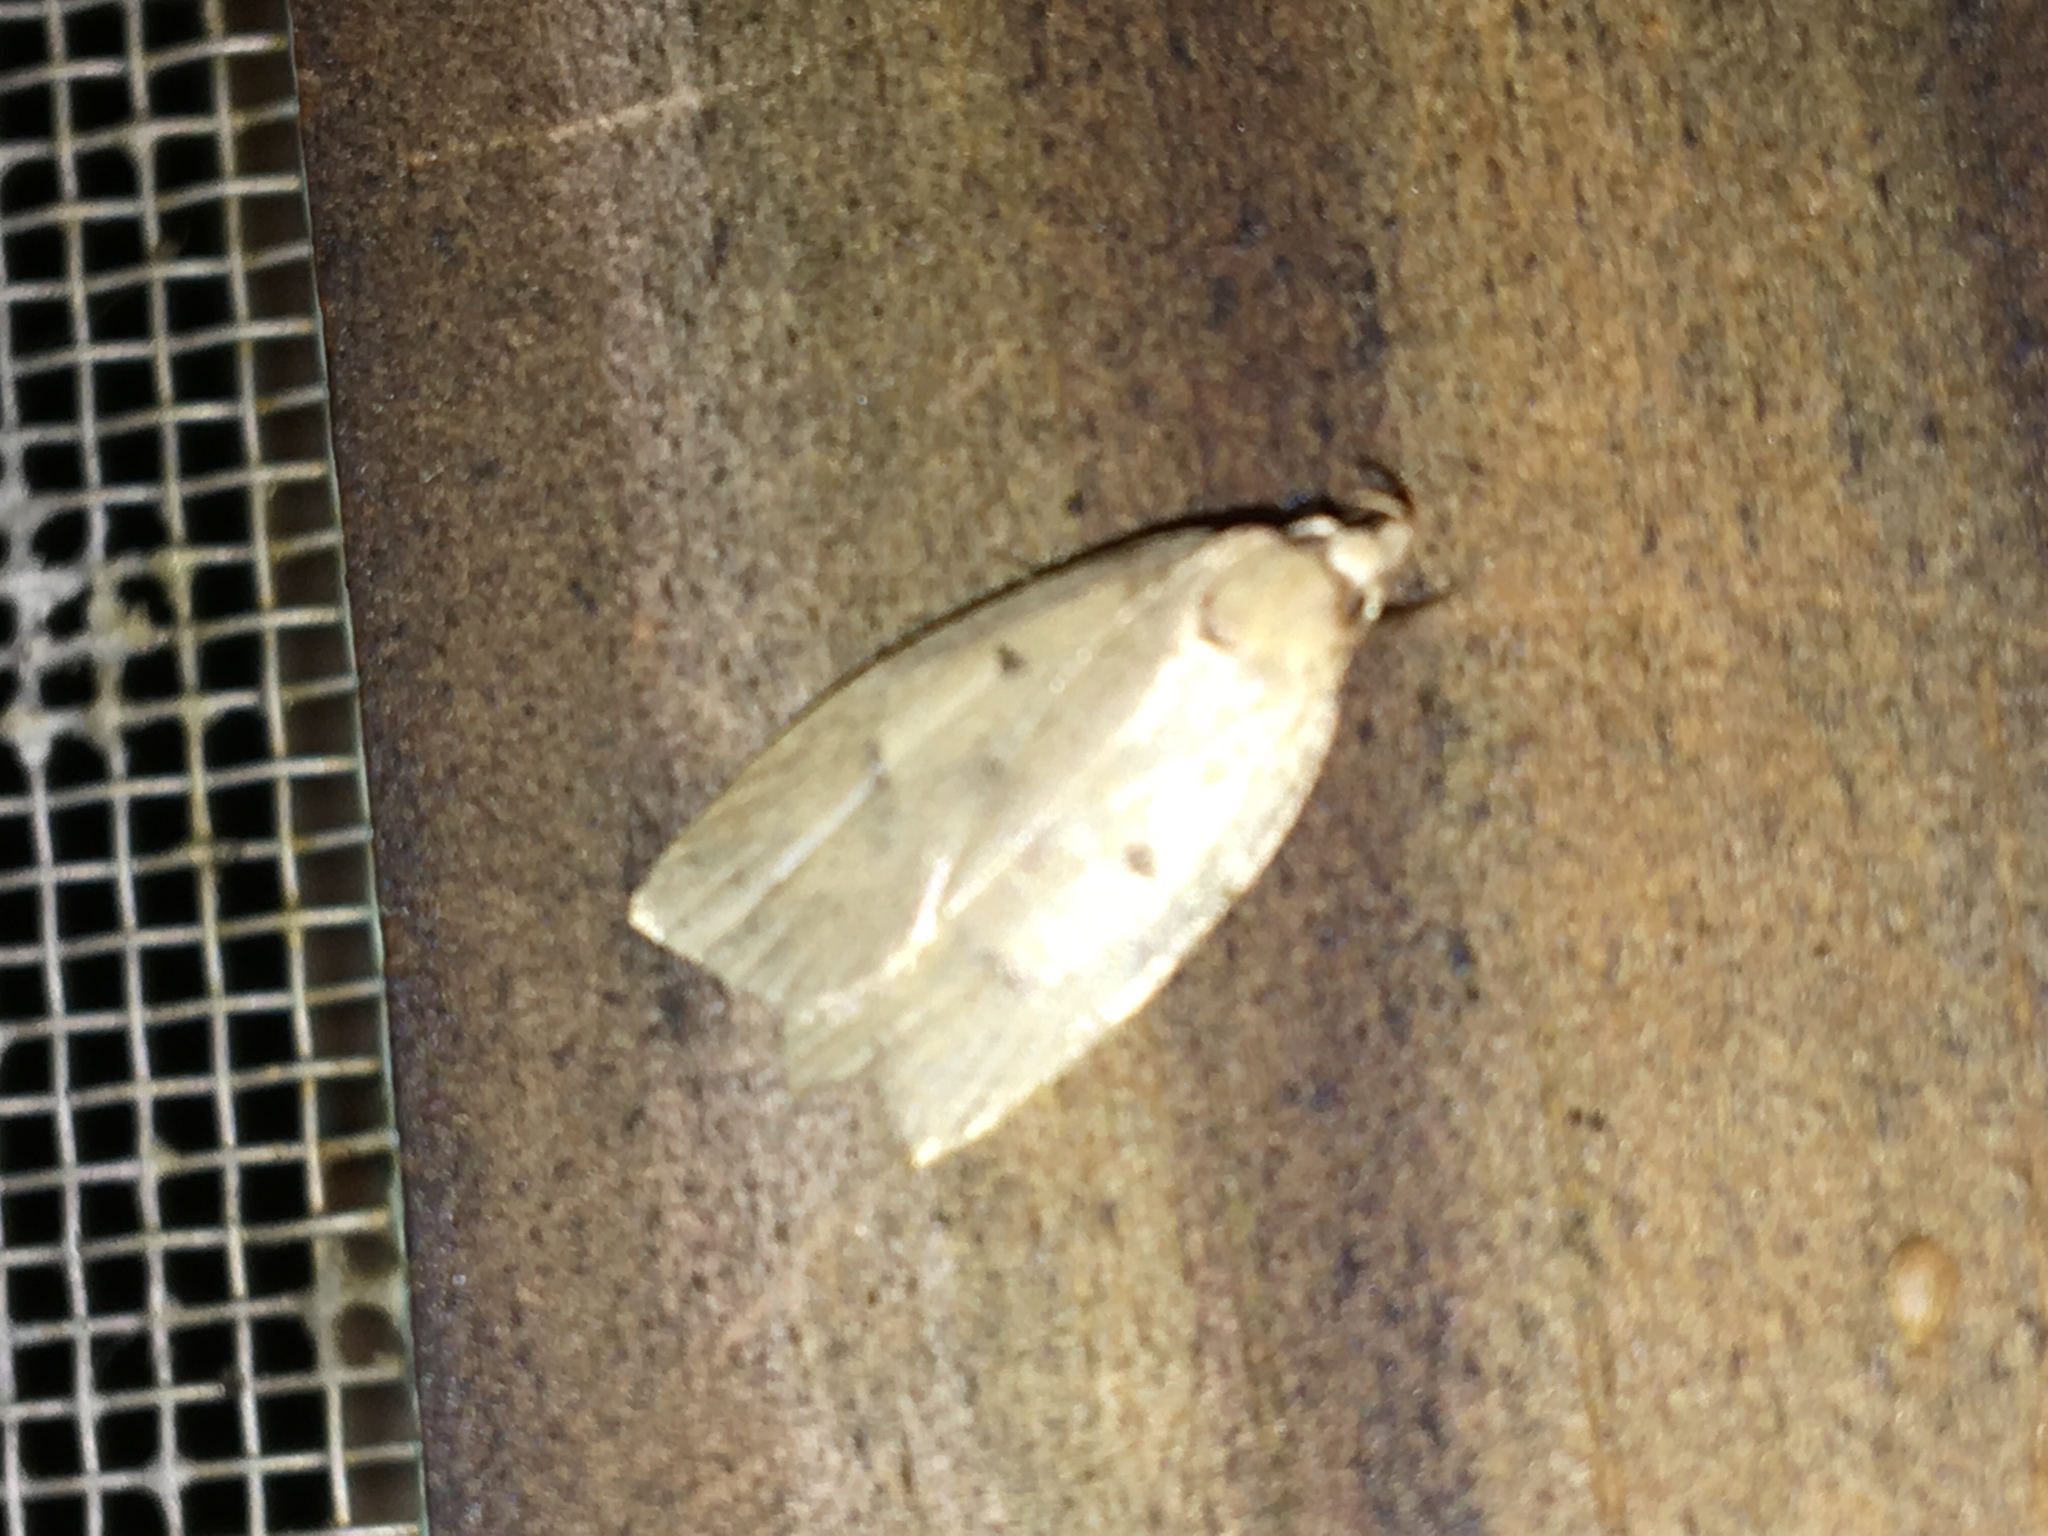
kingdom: Animalia
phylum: Arthropoda
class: Insecta
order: Lepidoptera
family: Peleopodidae
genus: Machimia
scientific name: Machimia tentoriferella
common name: Gold-striped leaftier moth
